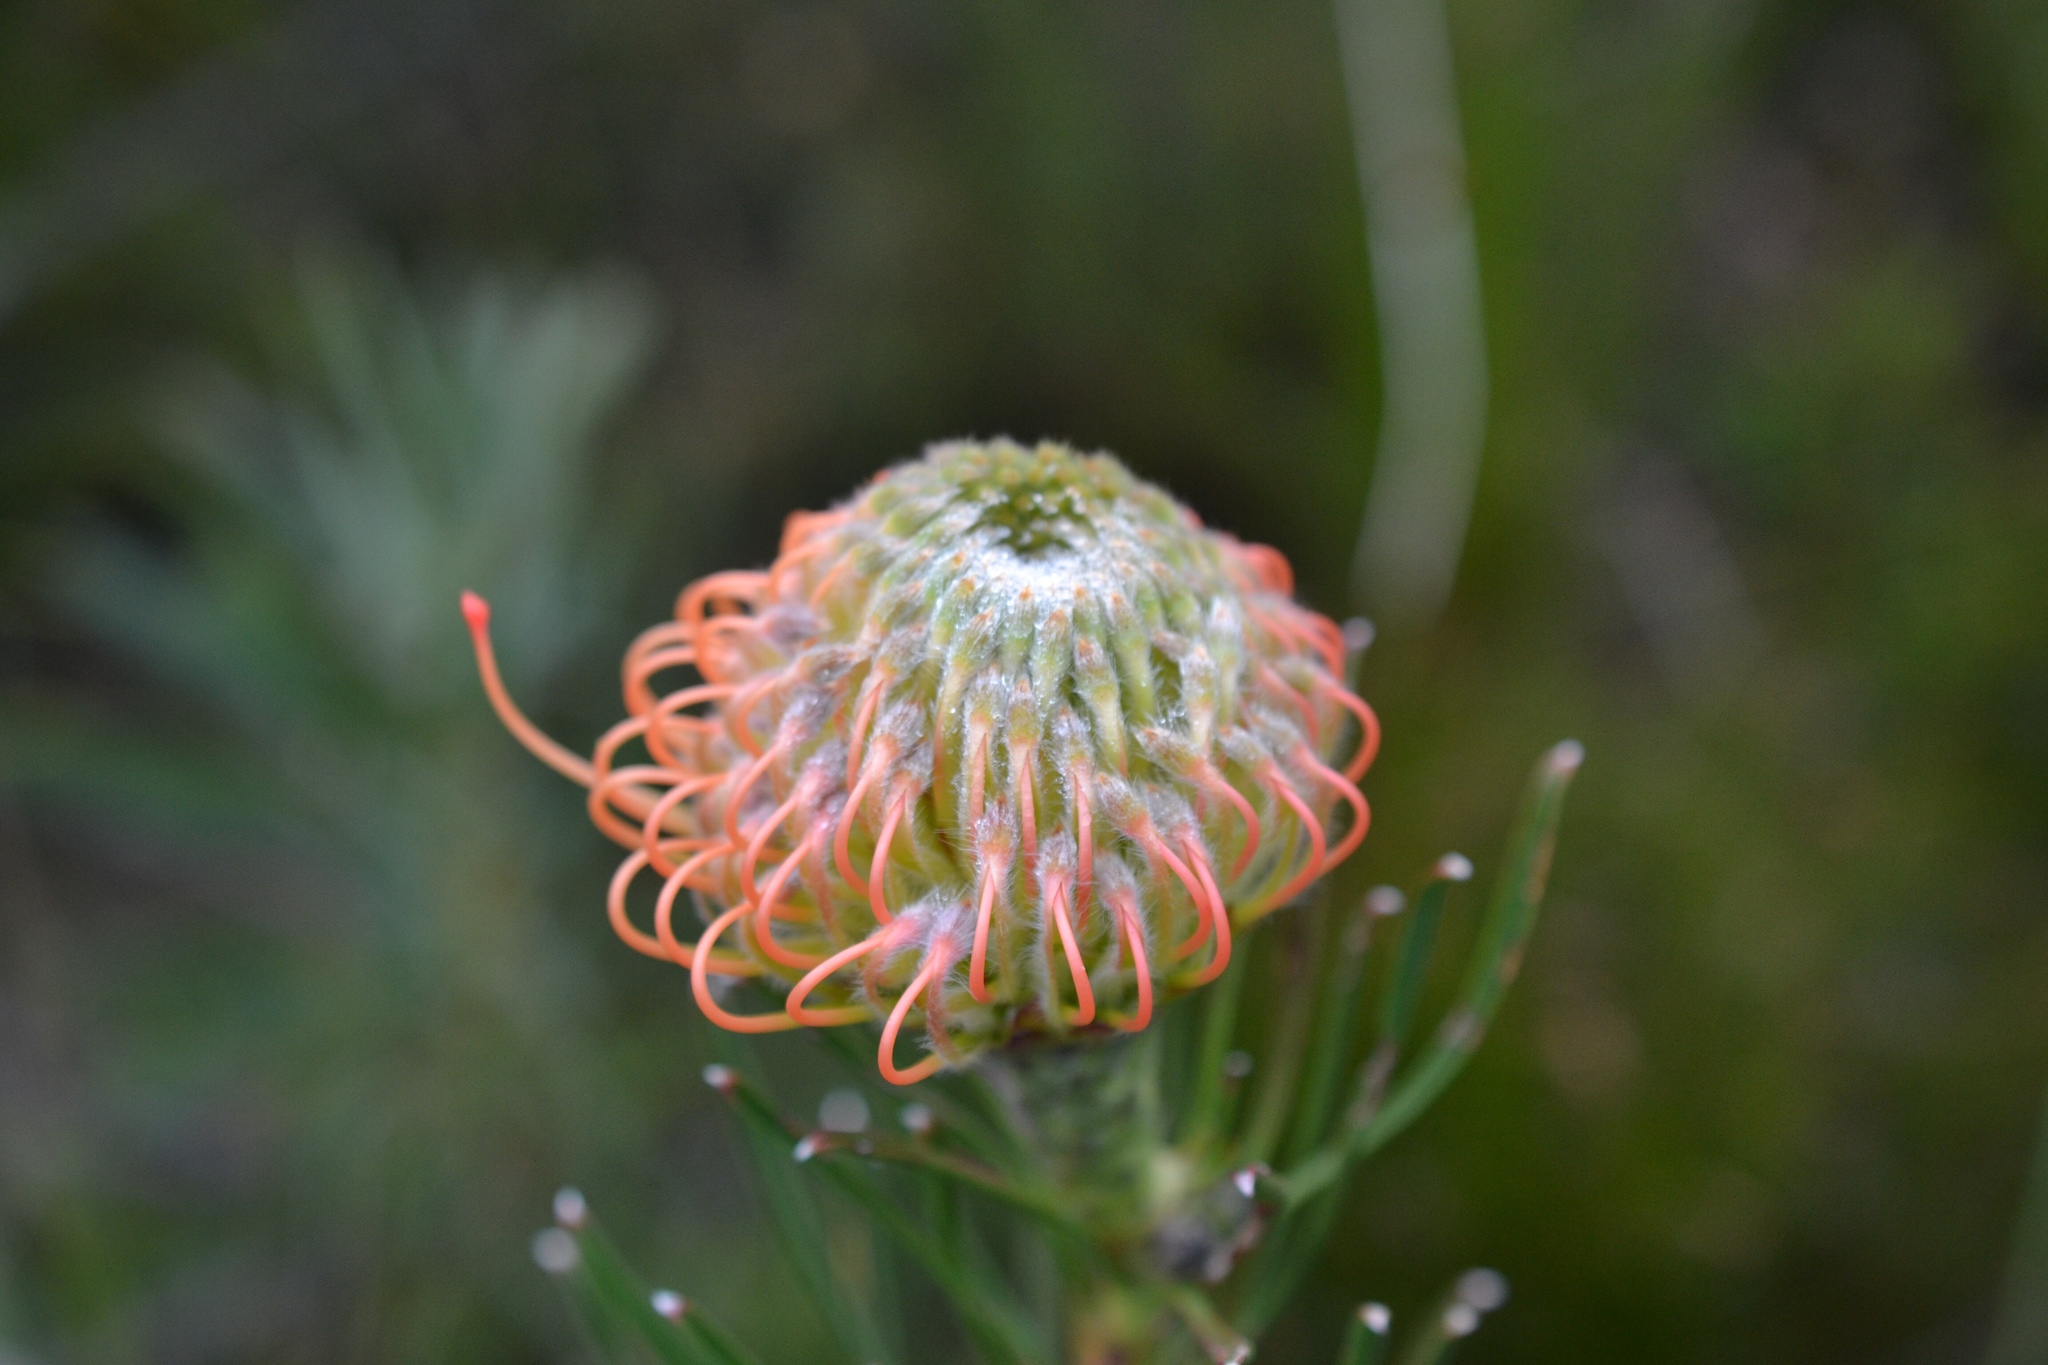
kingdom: Plantae
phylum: Tracheophyta
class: Magnoliopsida
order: Proteales
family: Proteaceae
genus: Leucospermum
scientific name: Leucospermum lineare
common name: Needle-leaf pincushion
